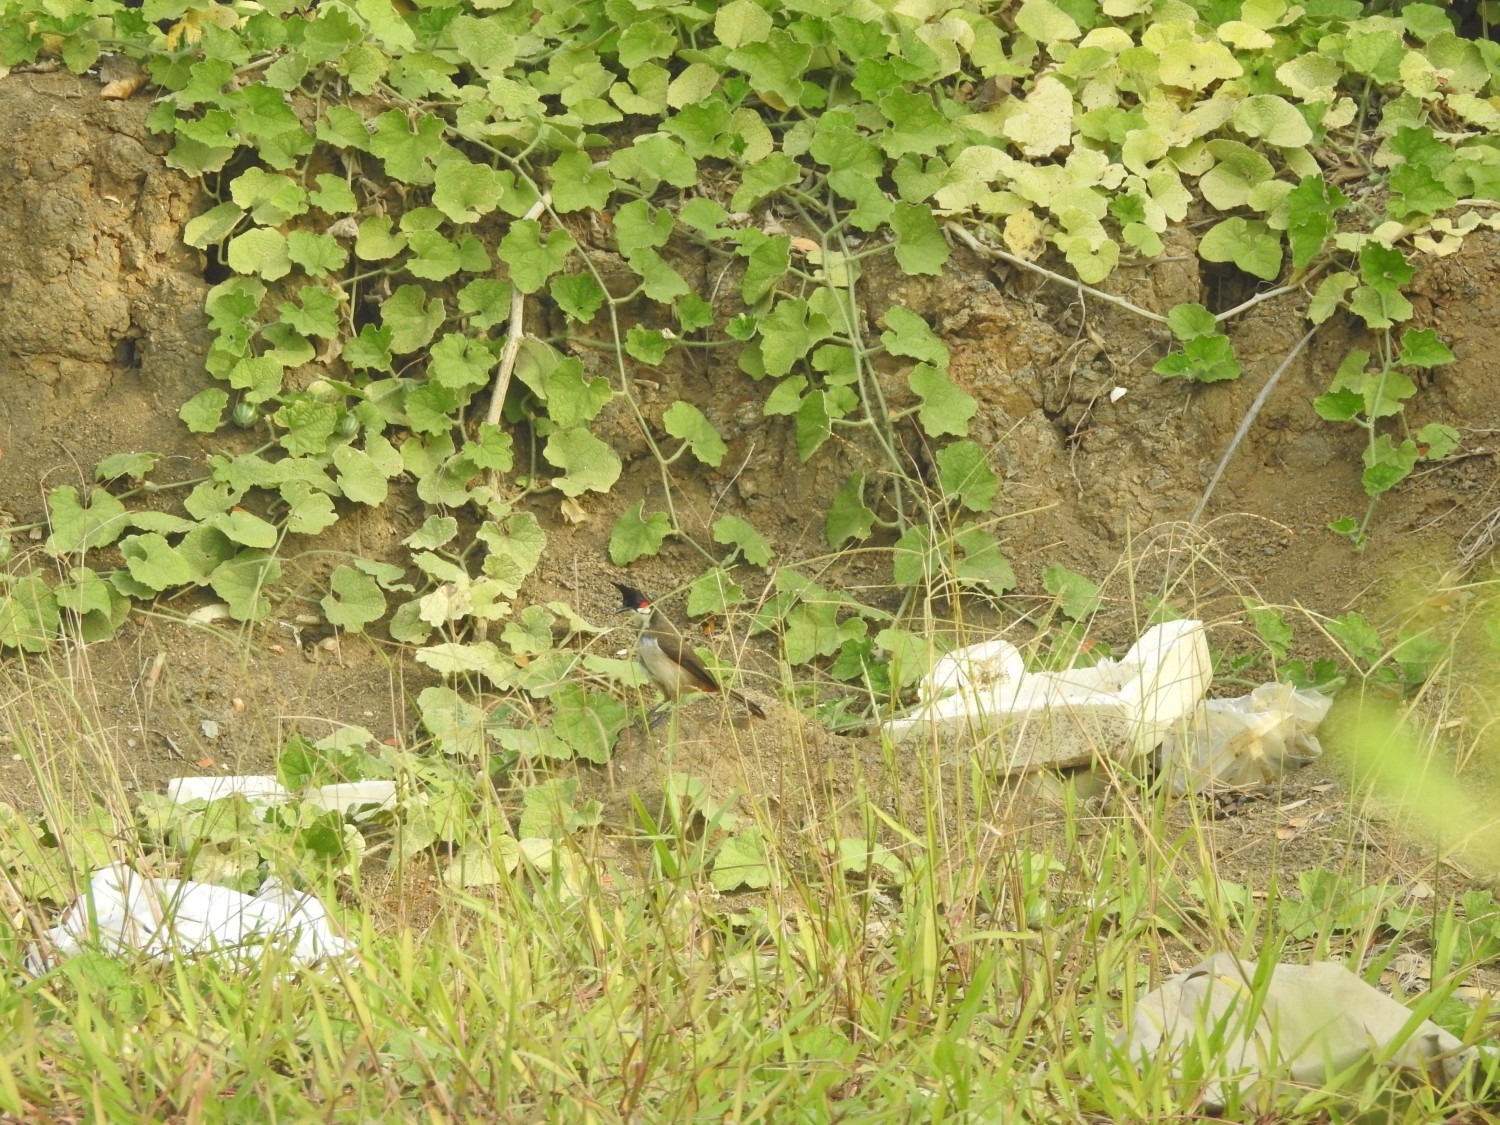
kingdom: Animalia
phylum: Chordata
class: Aves
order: Passeriformes
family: Pycnonotidae
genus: Pycnonotus
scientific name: Pycnonotus jocosus
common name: Red-whiskered bulbul
